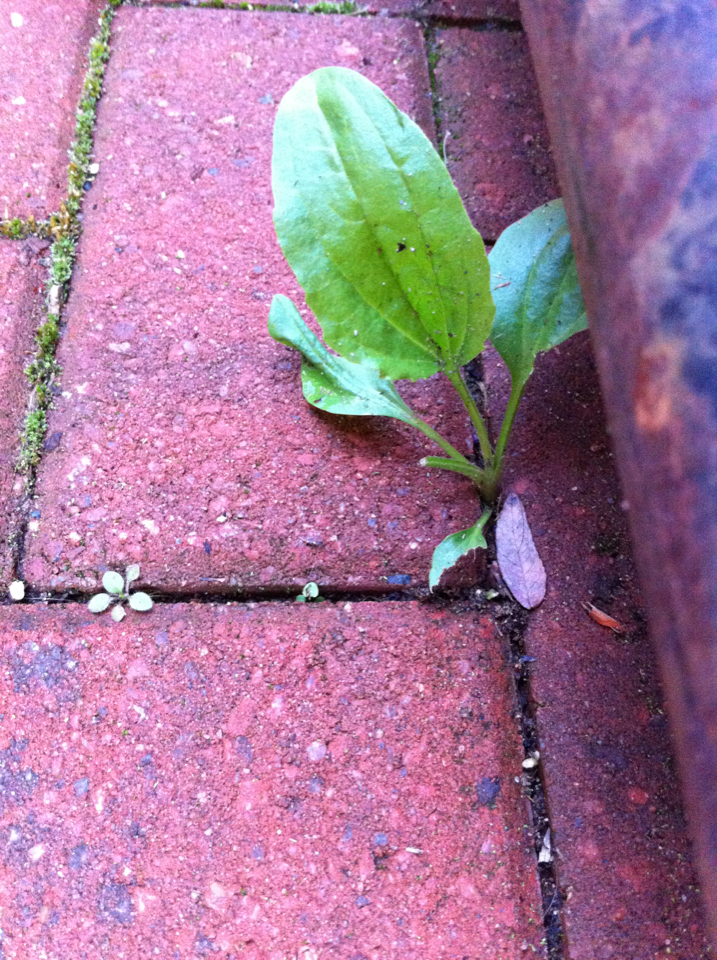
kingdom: Plantae
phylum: Tracheophyta
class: Magnoliopsida
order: Lamiales
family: Plantaginaceae
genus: Plantago
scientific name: Plantago major
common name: Common plantain
